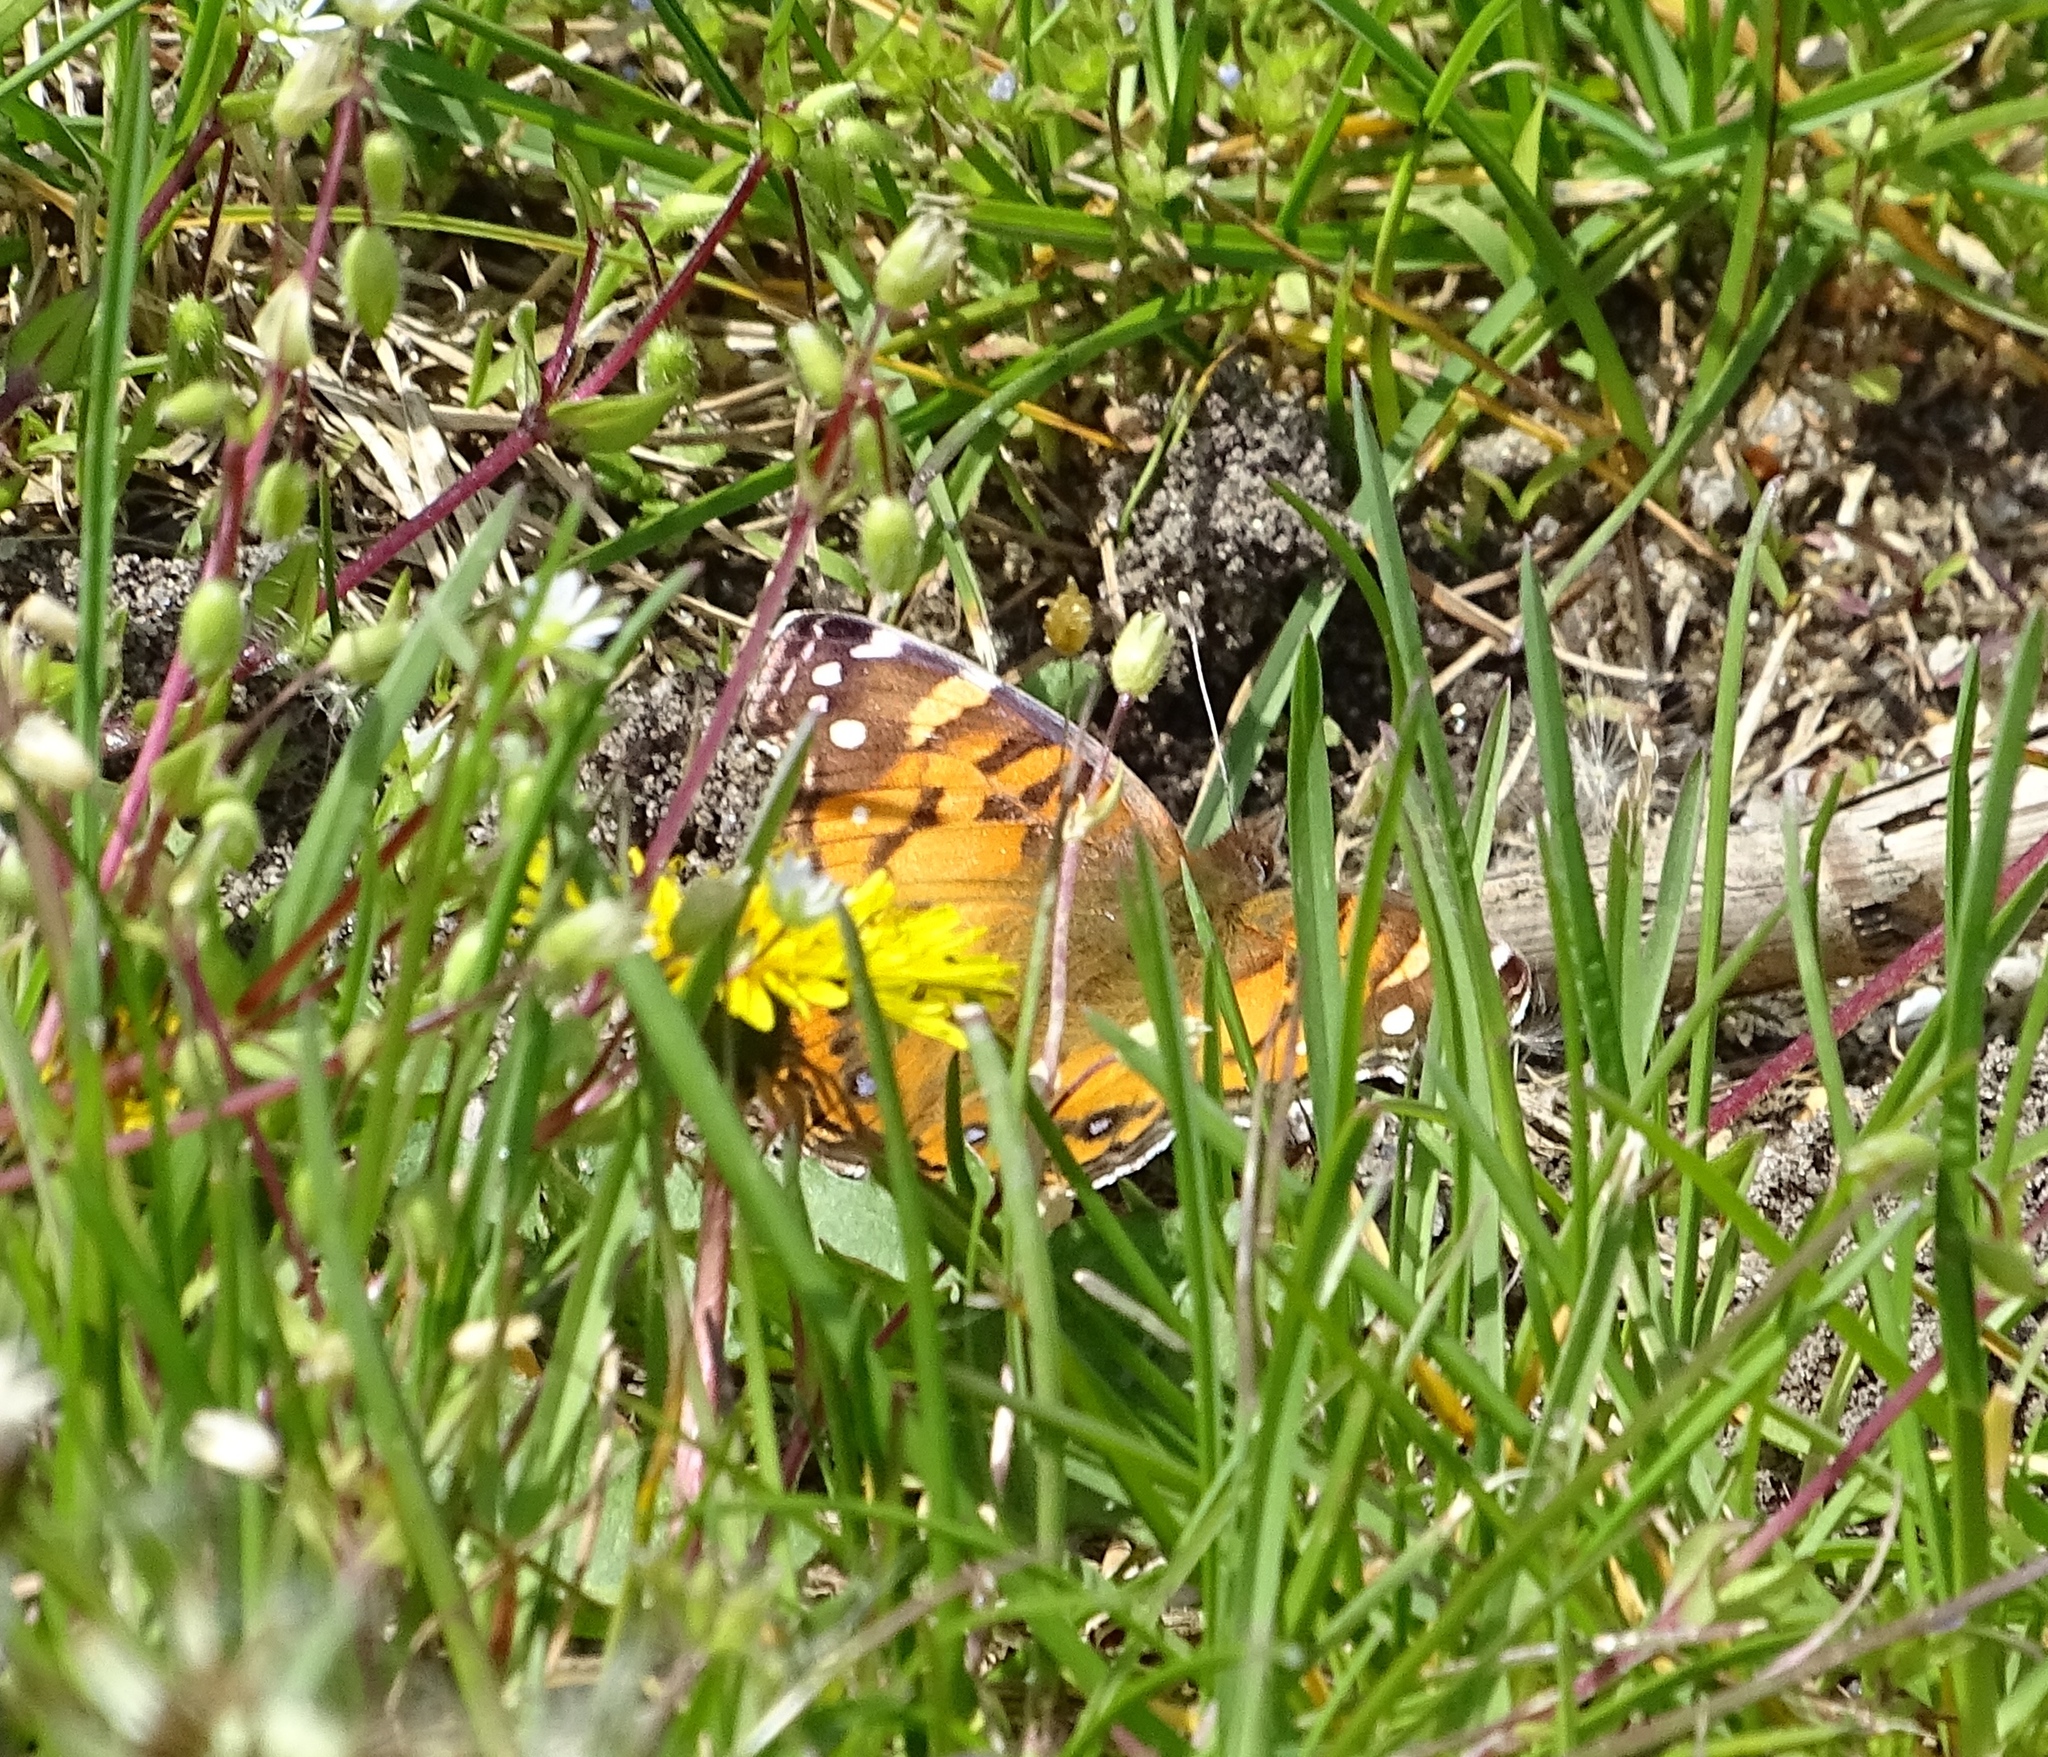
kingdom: Animalia
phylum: Arthropoda
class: Insecta
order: Lepidoptera
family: Nymphalidae
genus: Vanessa
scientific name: Vanessa virginiensis
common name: American lady
